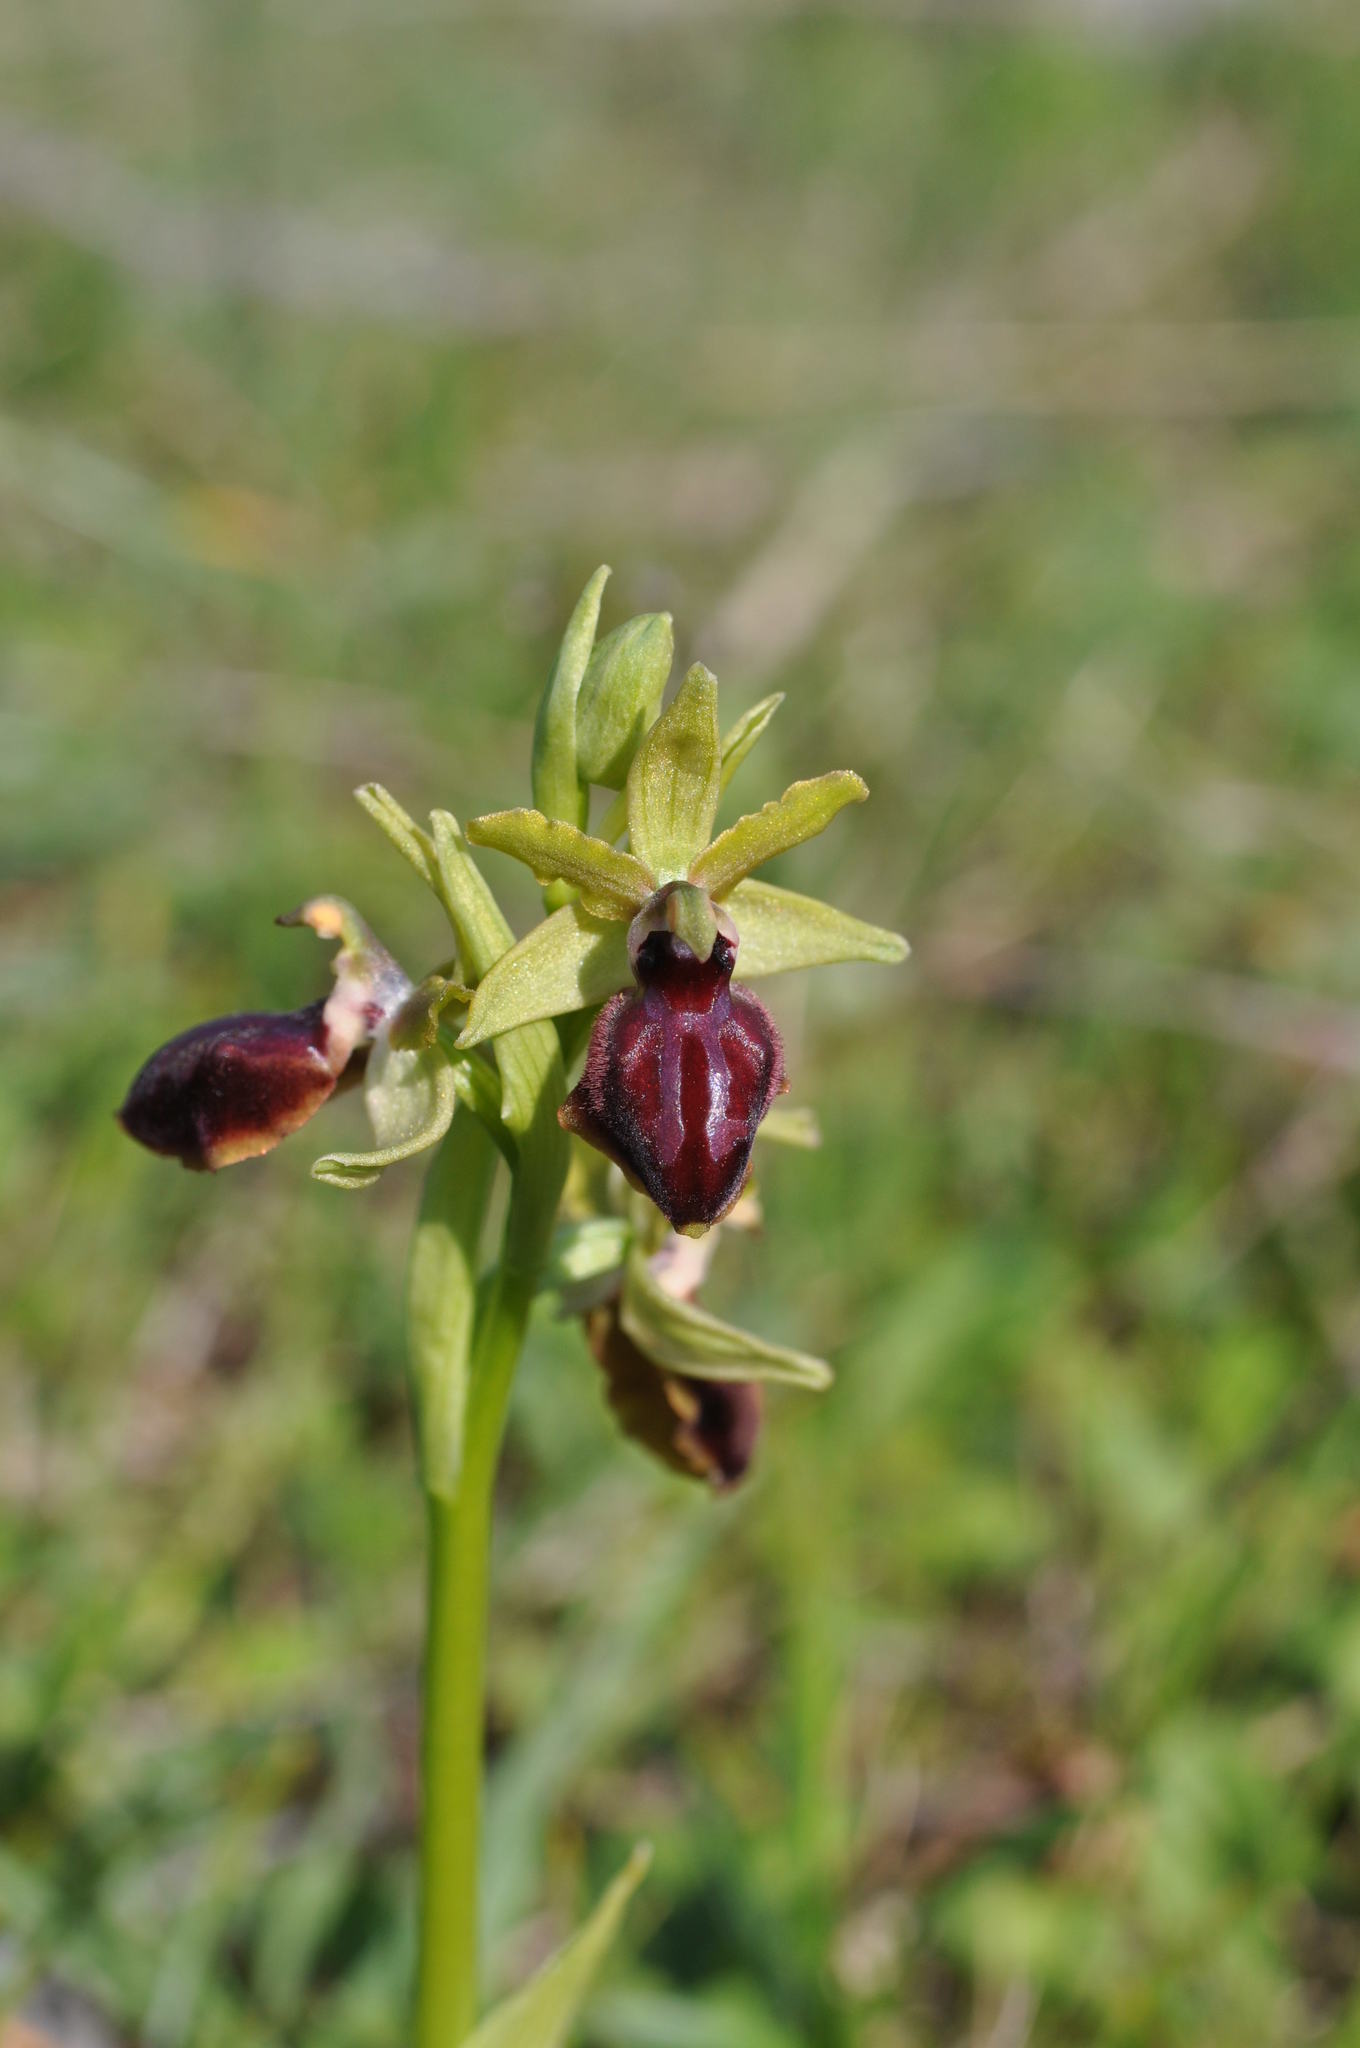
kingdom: Plantae
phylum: Tracheophyta
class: Liliopsida
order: Asparagales
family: Orchidaceae
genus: Ophrys
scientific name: Ophrys sphegodes
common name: Early spider-orchid
